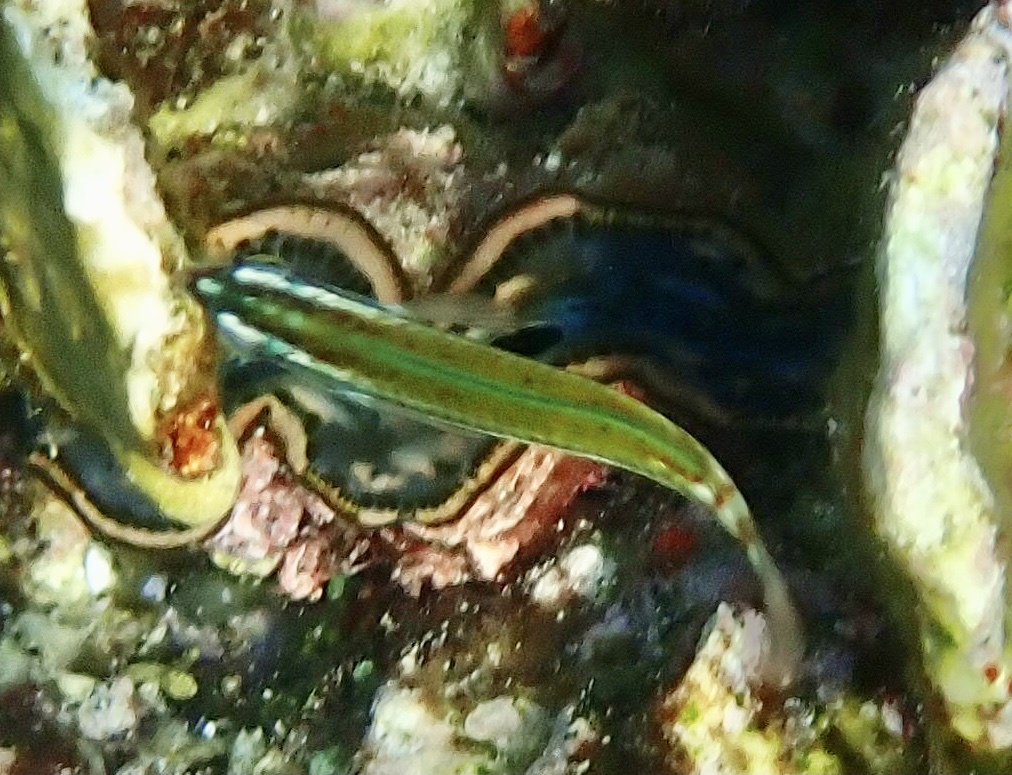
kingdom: Animalia
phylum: Chordata
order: Perciformes
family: Labridae
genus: Thalassoma
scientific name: Thalassoma lunare
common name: Blue wrasse
